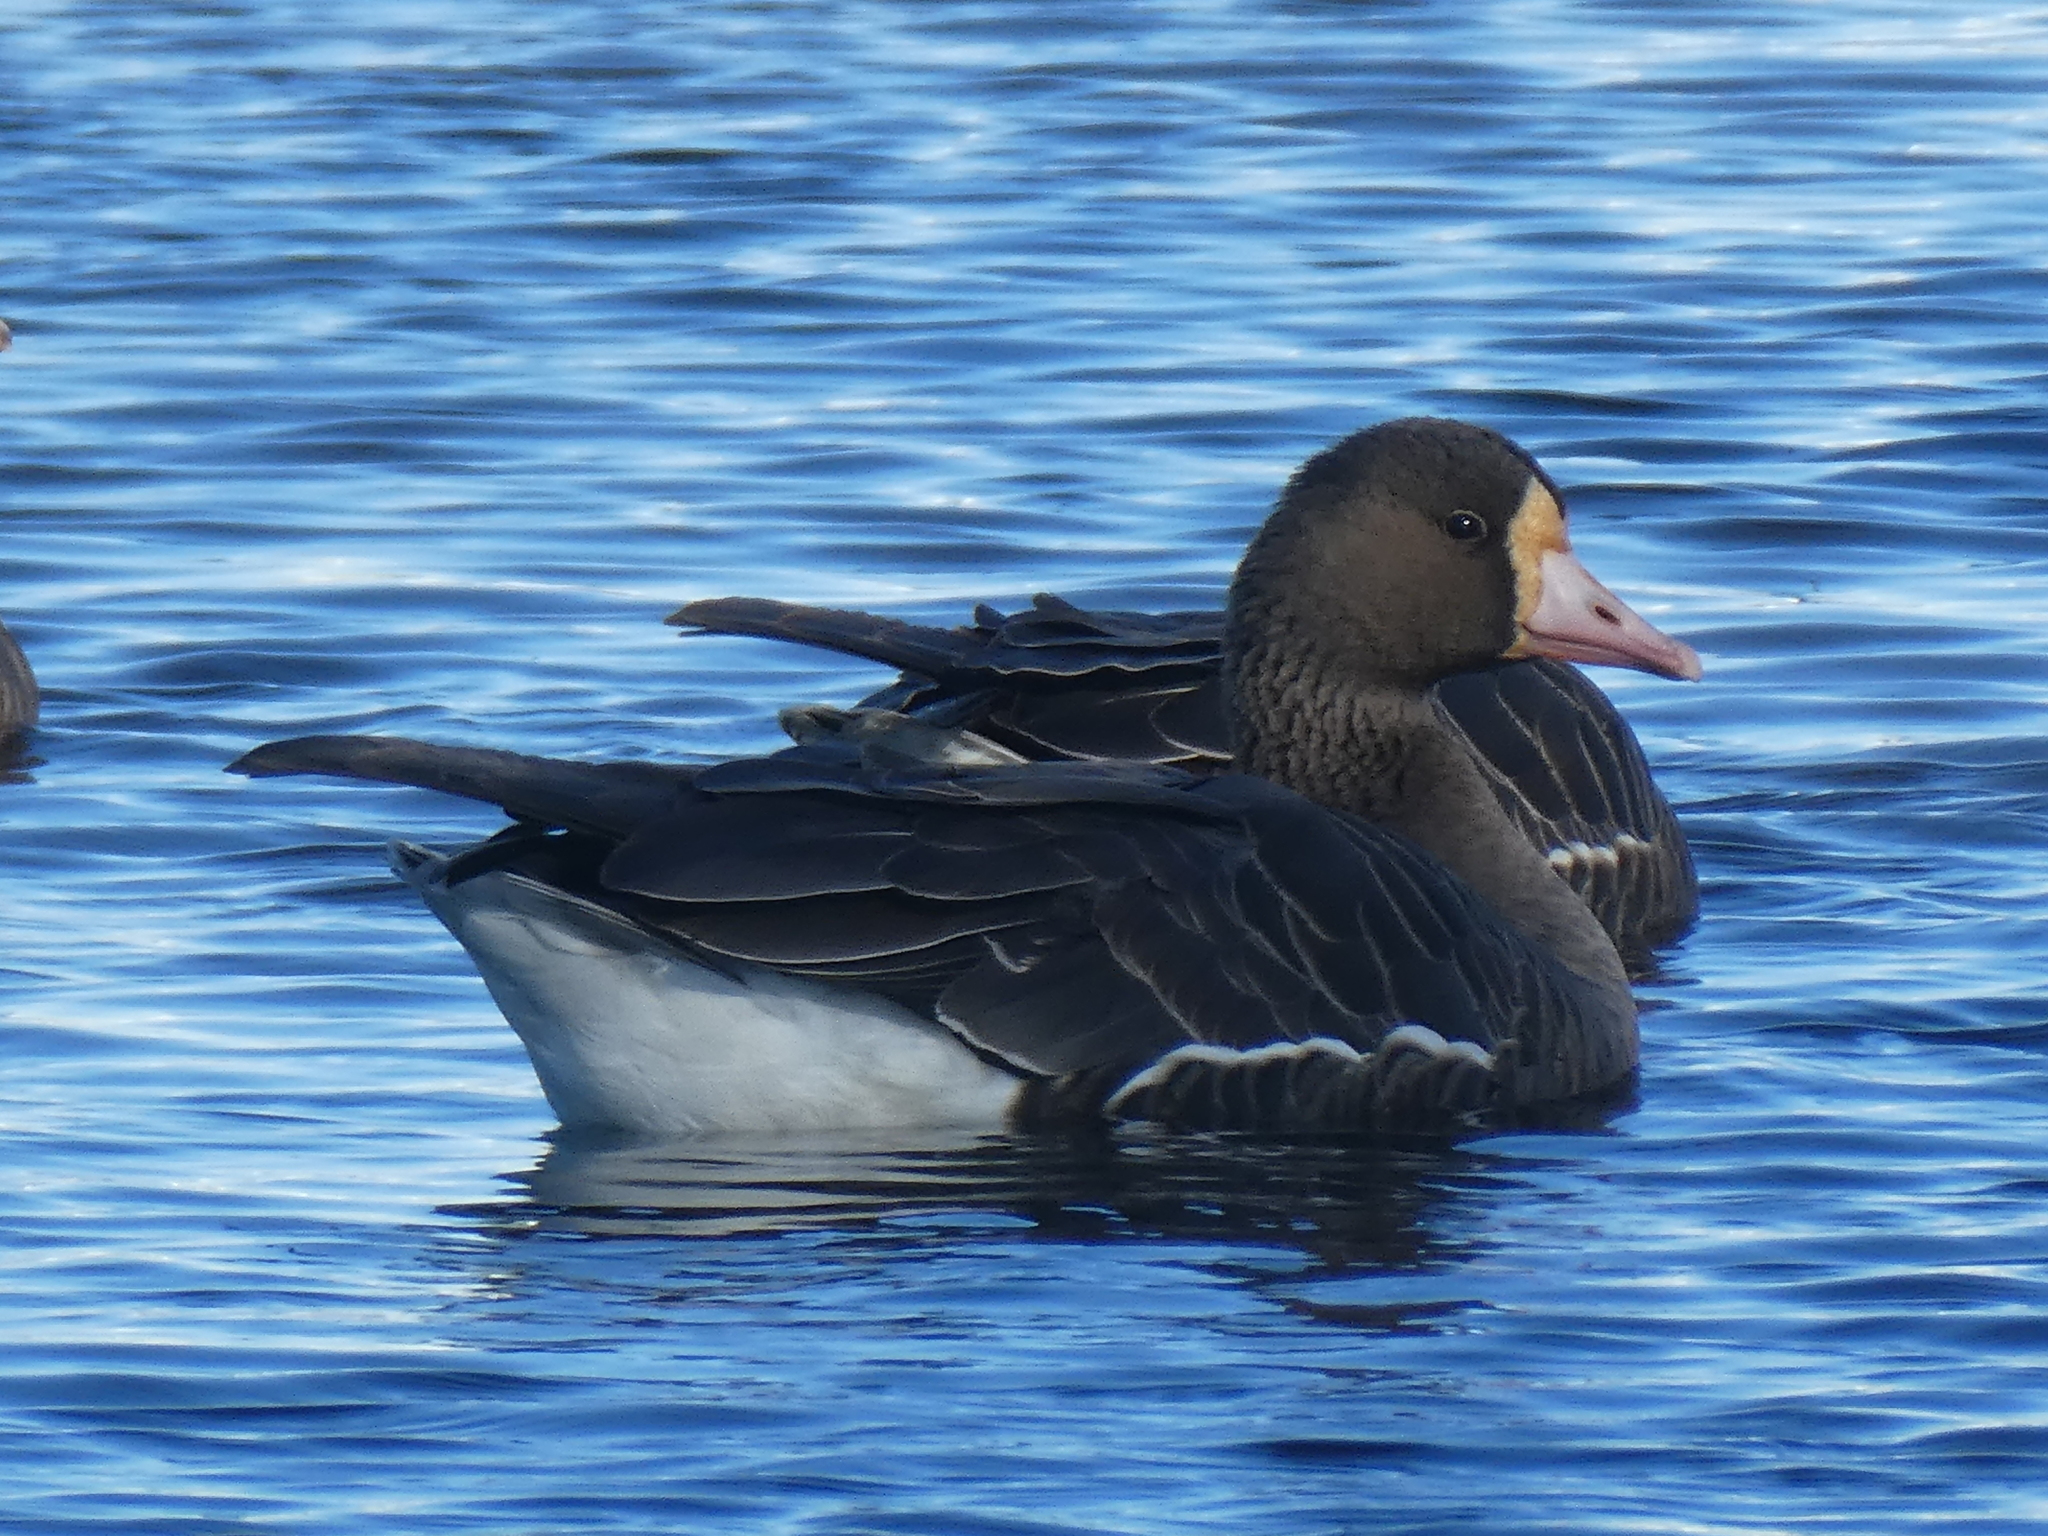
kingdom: Animalia
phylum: Chordata
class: Aves
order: Anseriformes
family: Anatidae
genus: Anser
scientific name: Anser albifrons
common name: Greater white-fronted goose
